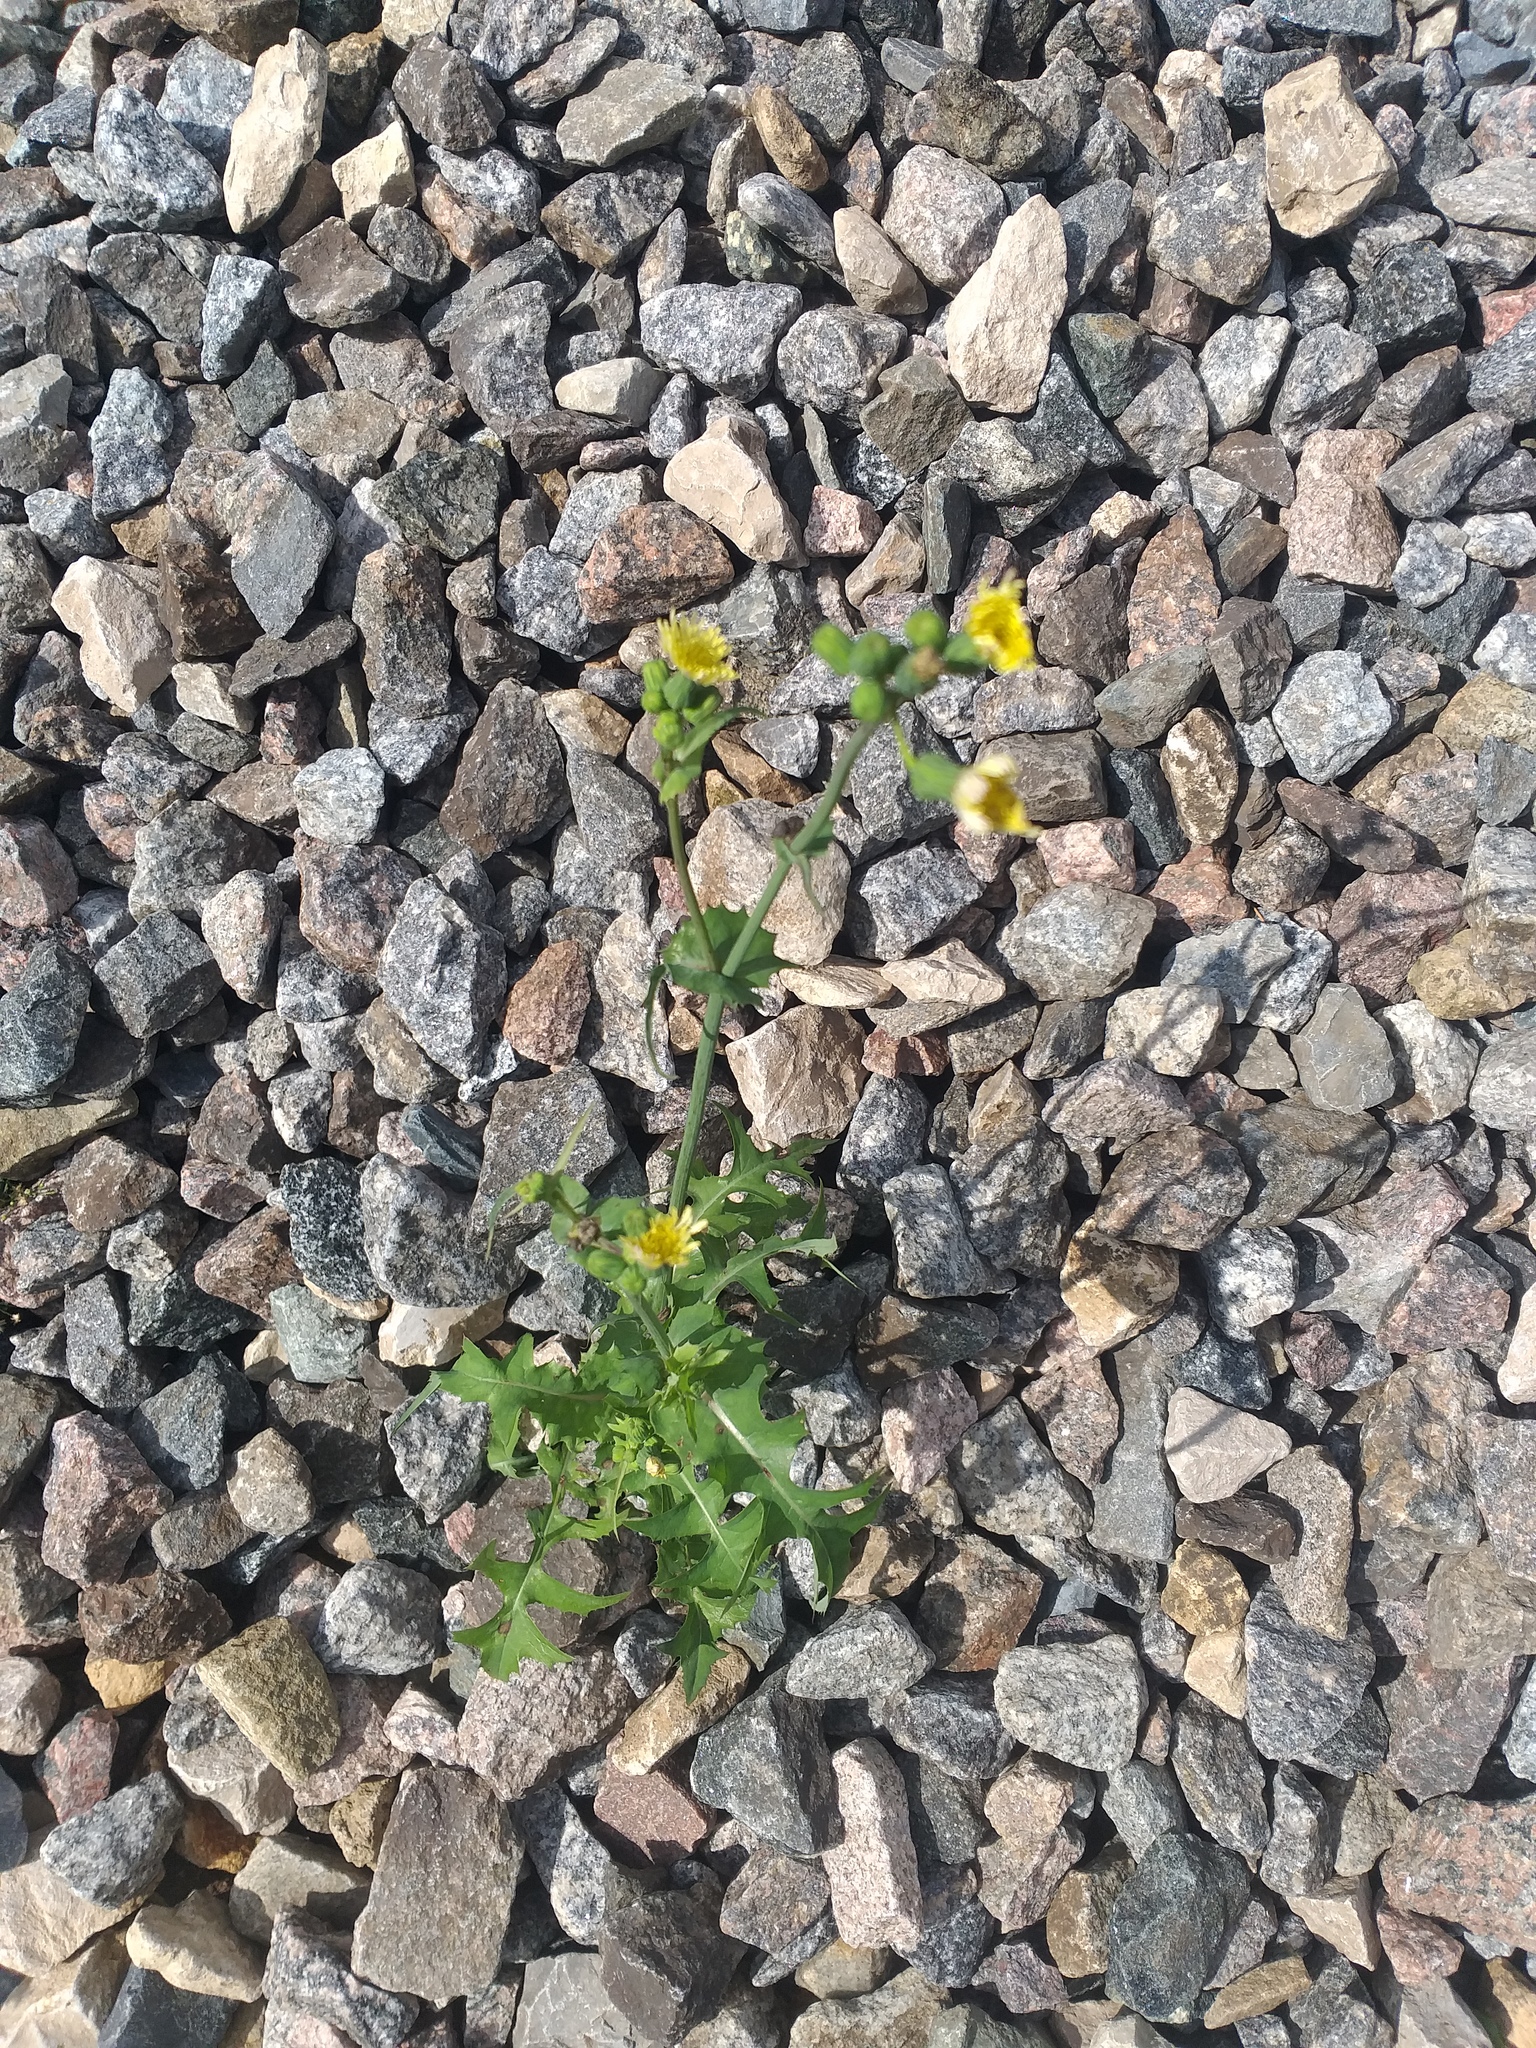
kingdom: Plantae
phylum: Tracheophyta
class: Magnoliopsida
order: Asterales
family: Asteraceae
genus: Sonchus
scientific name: Sonchus oleraceus
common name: Common sowthistle
